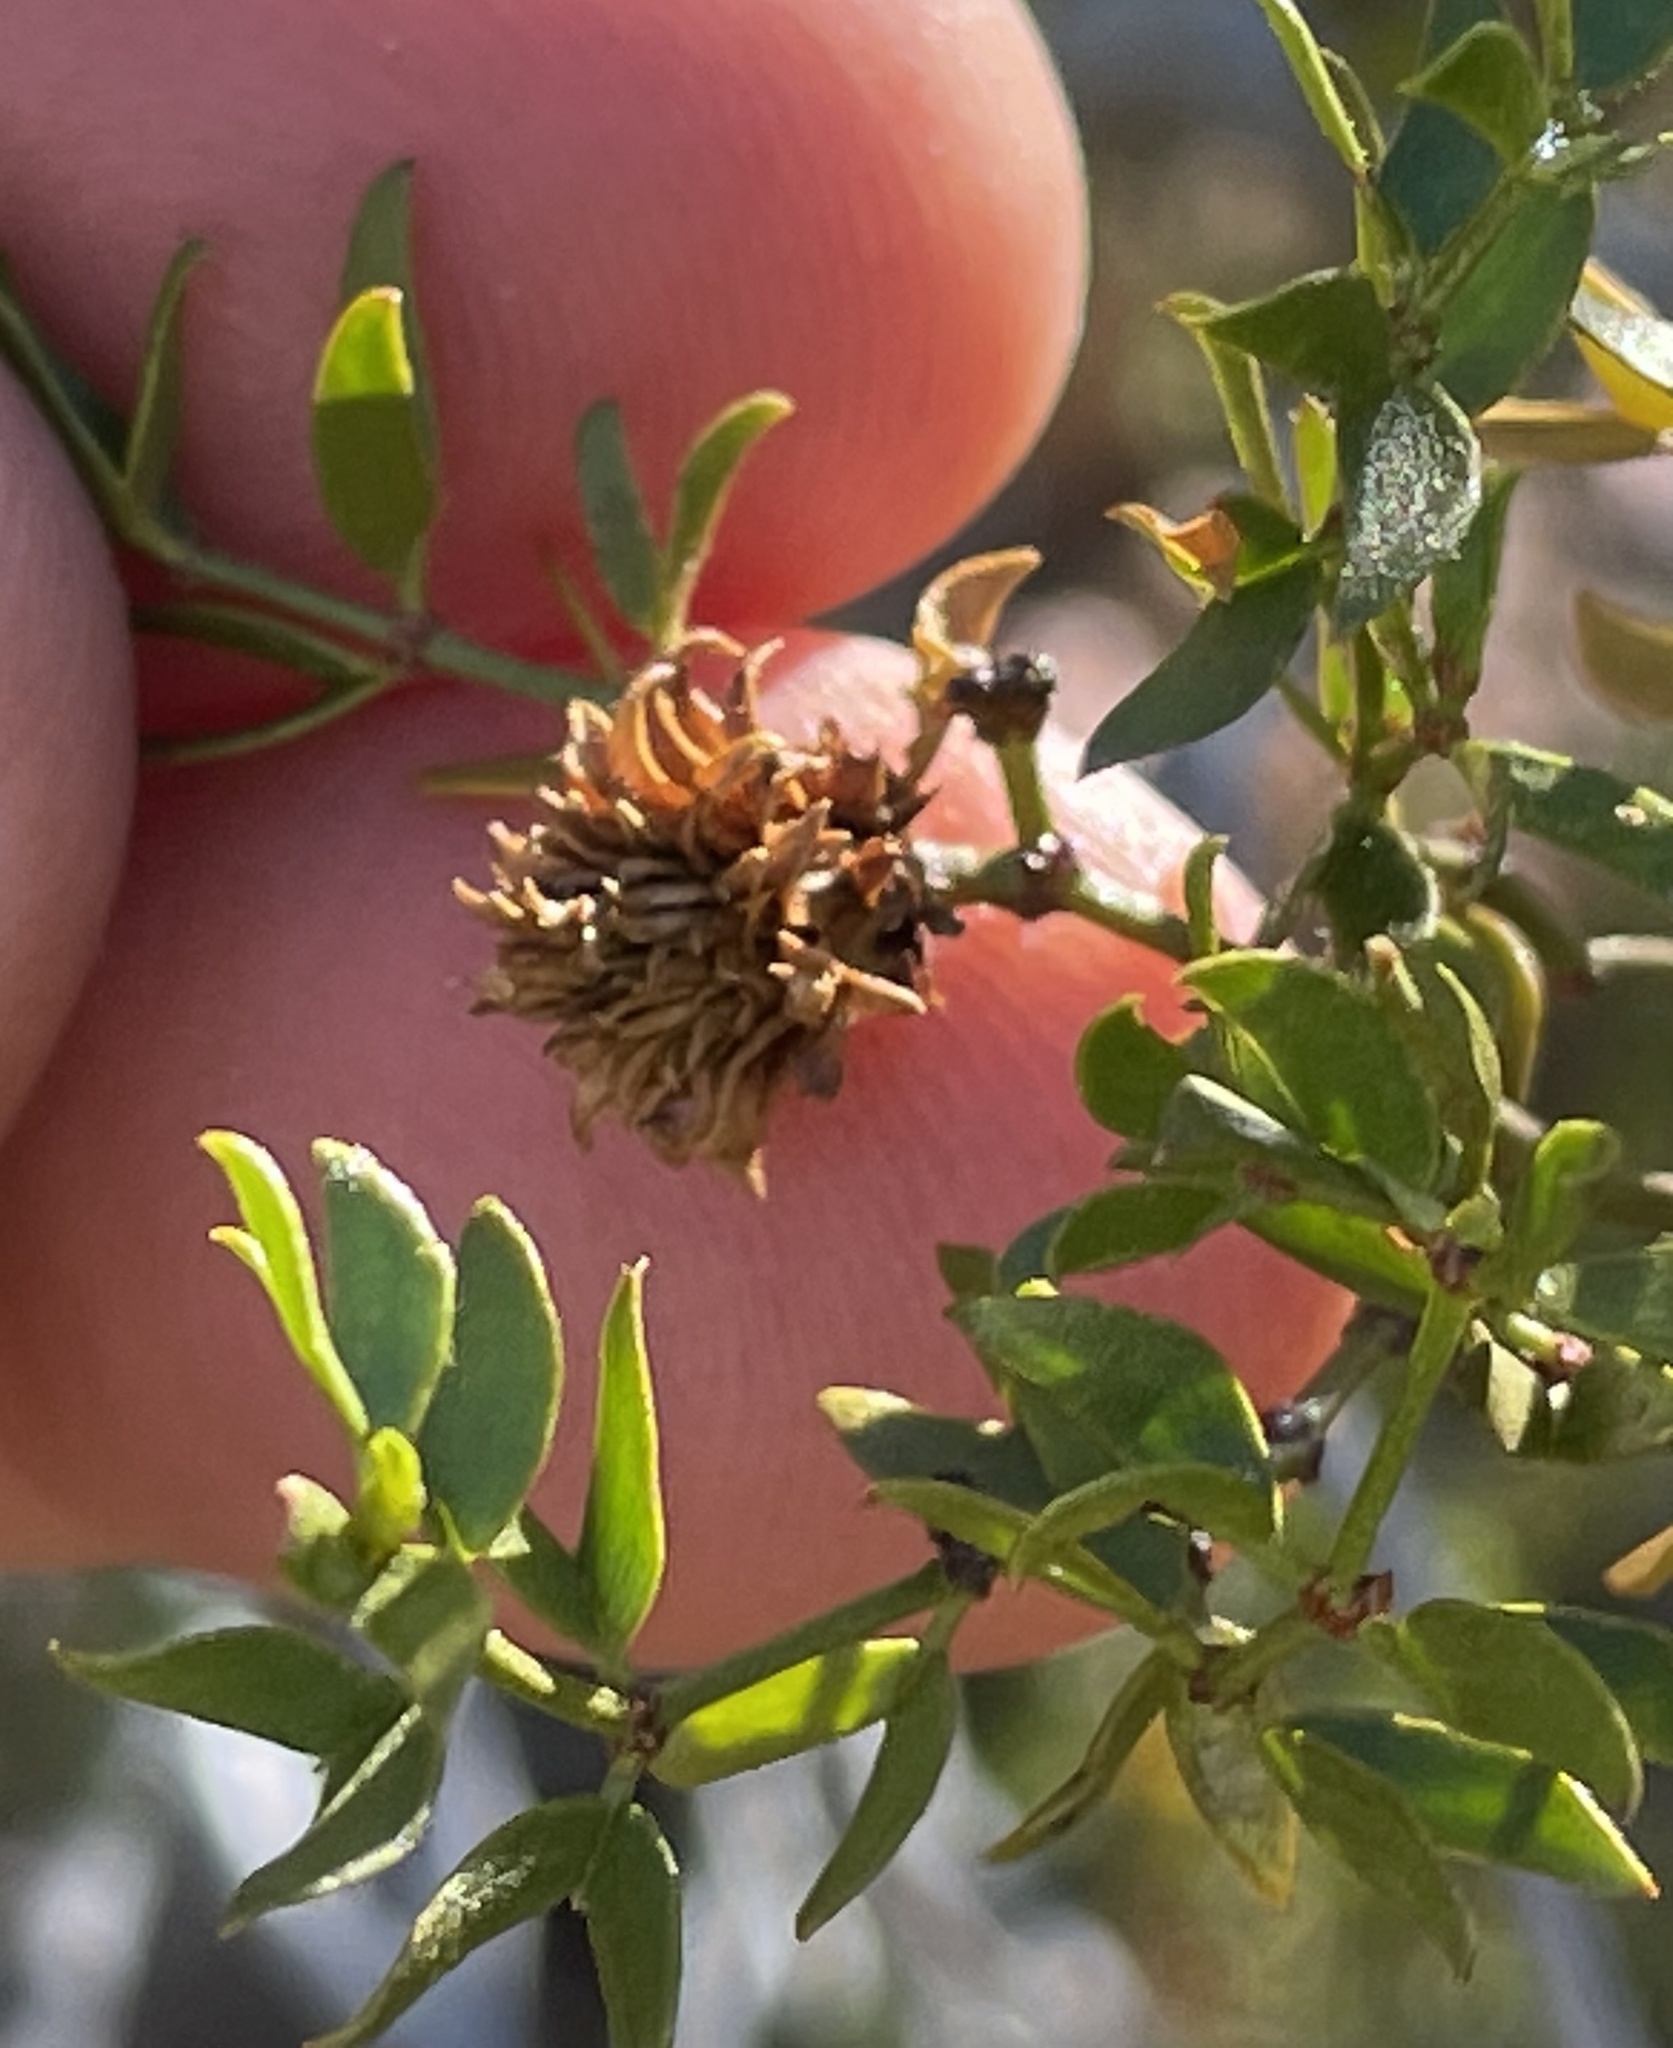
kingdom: Animalia
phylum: Arthropoda
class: Insecta
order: Diptera
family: Cecidomyiidae
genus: Asphondylia
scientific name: Asphondylia rosetta
